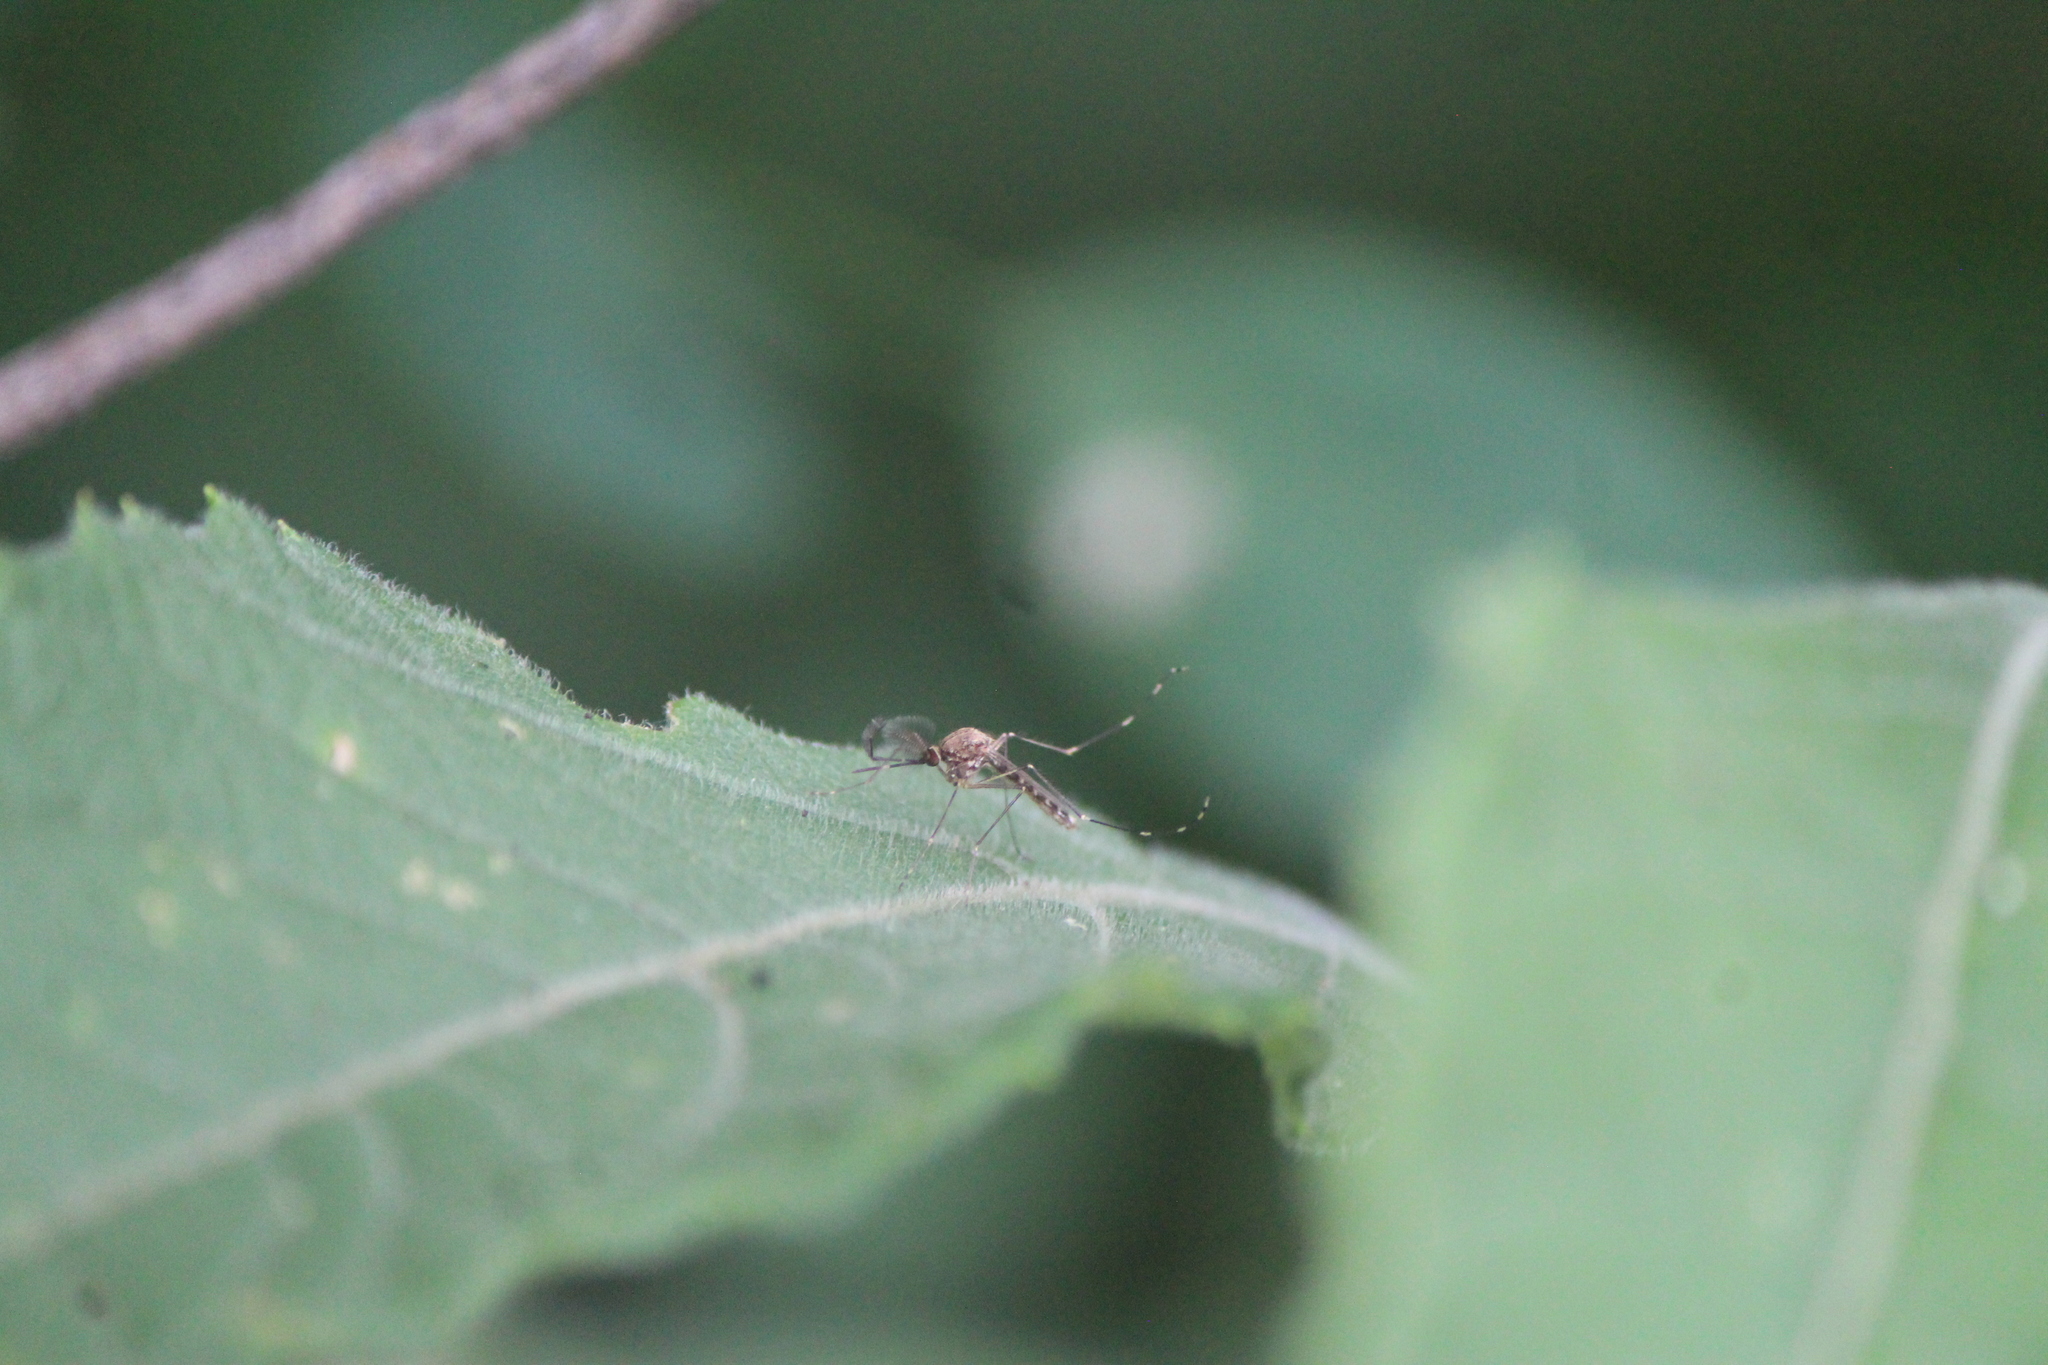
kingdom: Animalia
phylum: Arthropoda
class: Insecta
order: Diptera
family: Culicidae
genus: Culex
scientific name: Culex tarsalis
